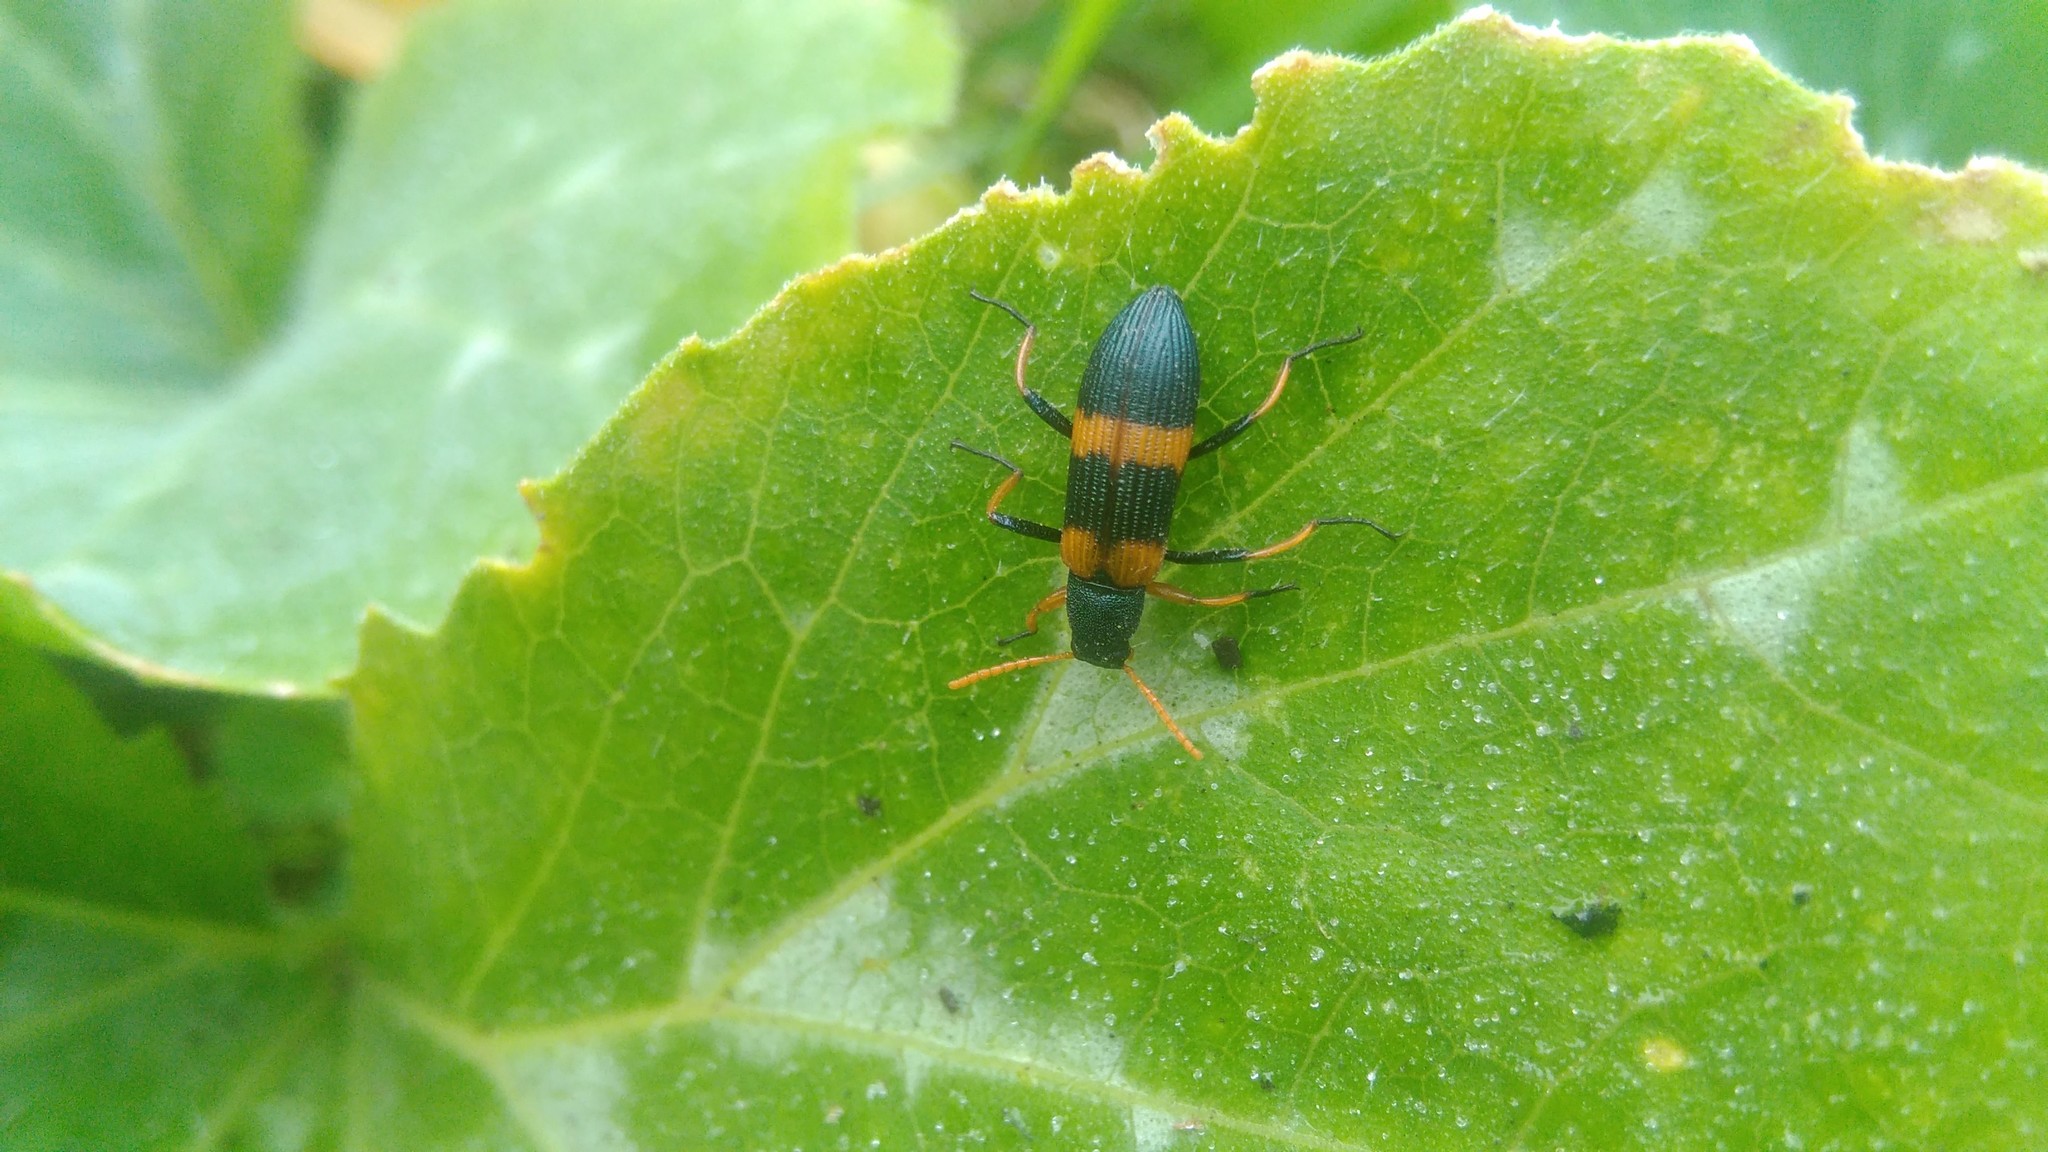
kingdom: Animalia
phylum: Arthropoda
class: Insecta
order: Coleoptera
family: Tenebrionidae
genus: Strongylium
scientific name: Strongylium
